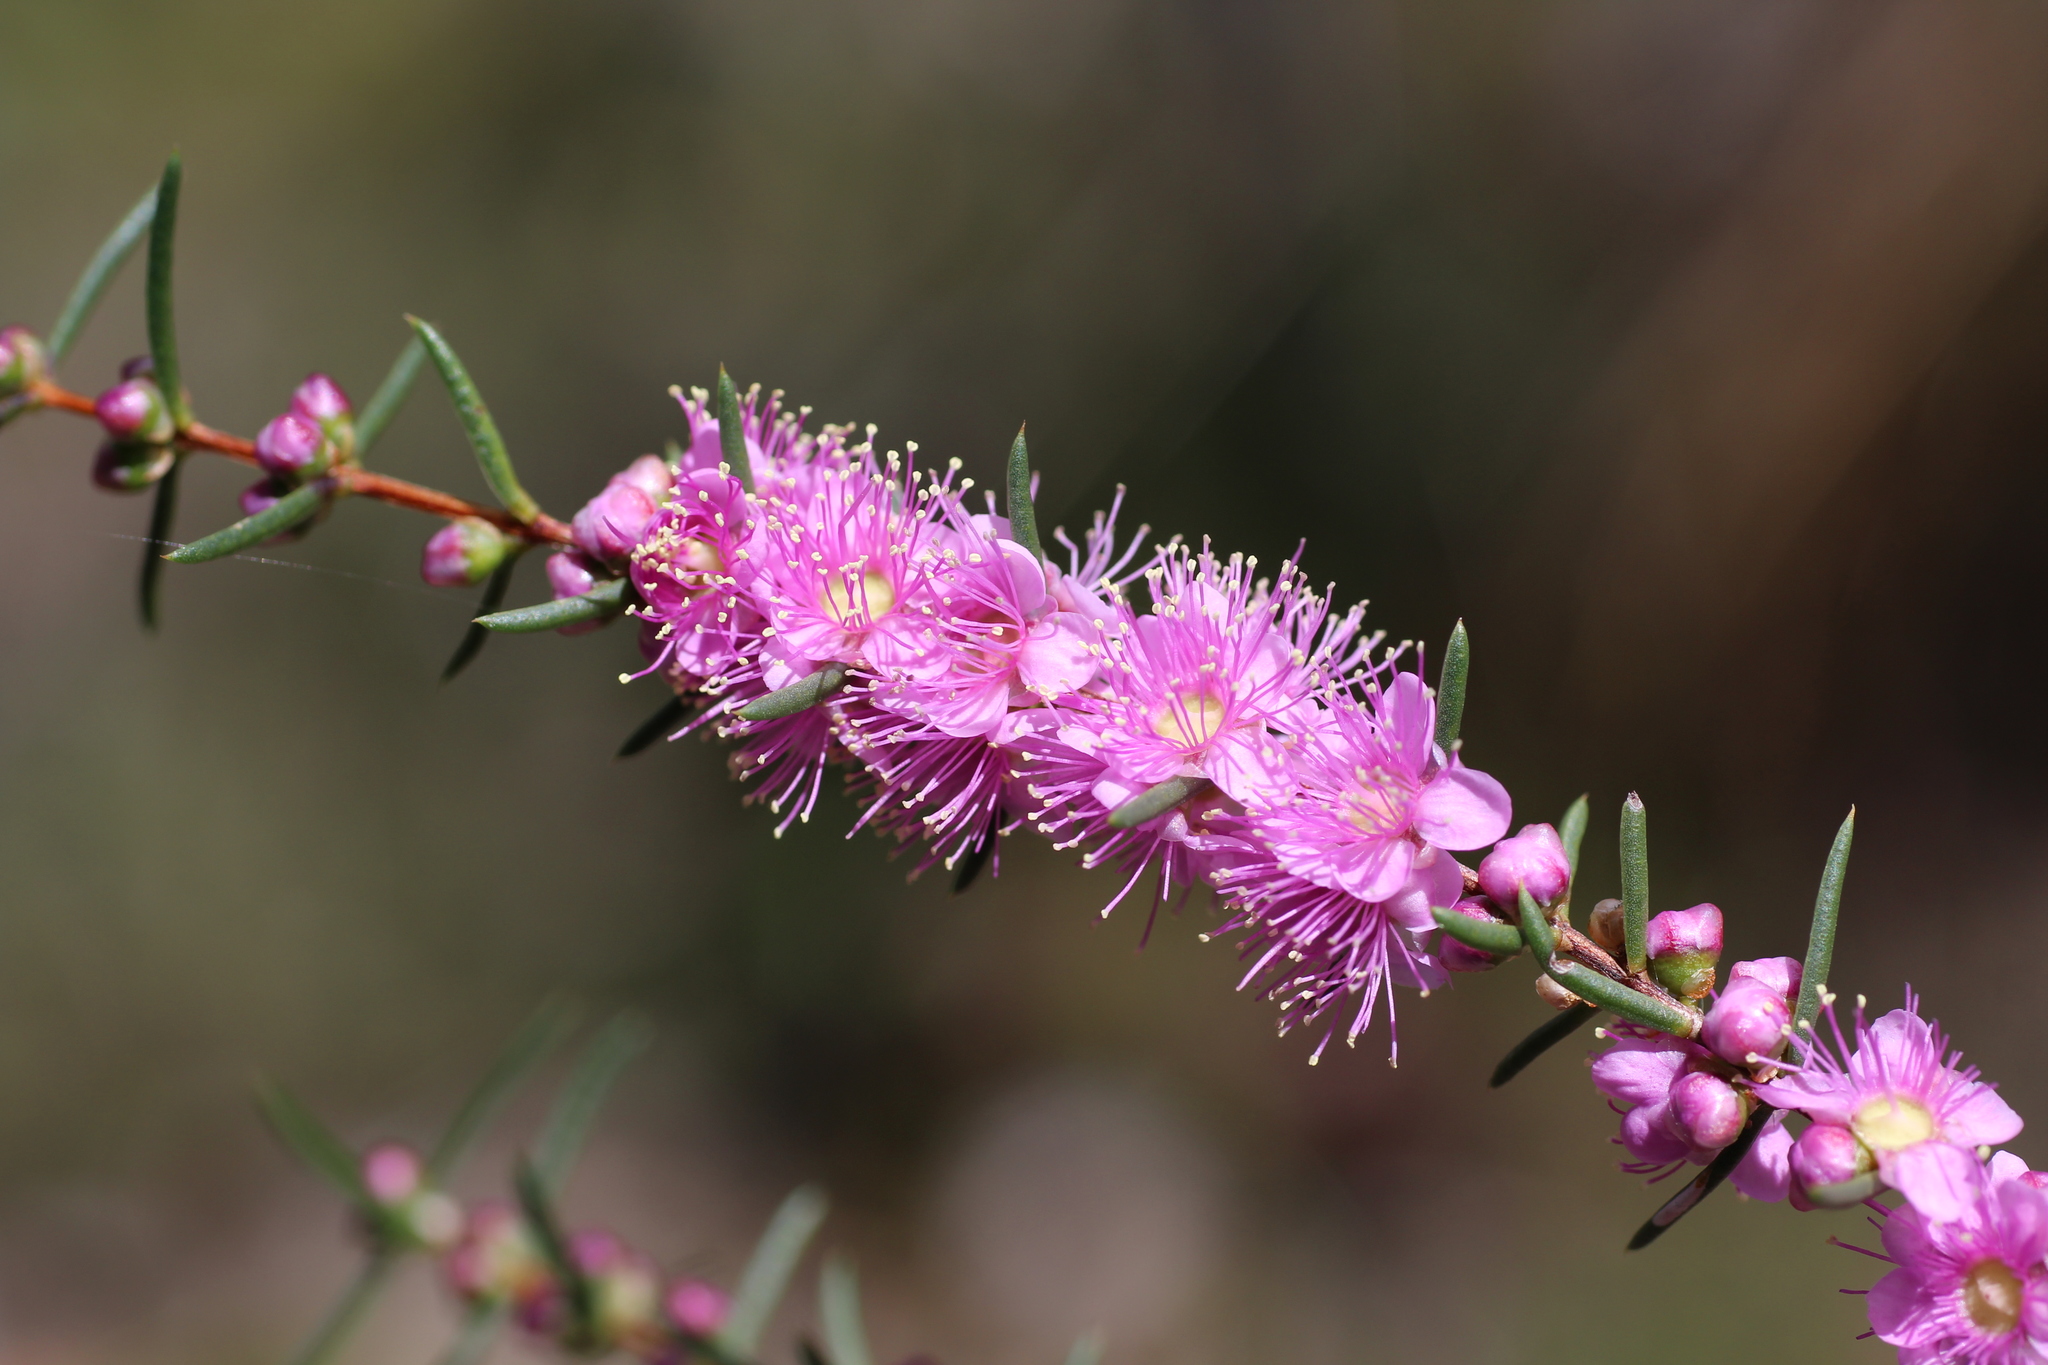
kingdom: Plantae
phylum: Tracheophyta
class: Magnoliopsida
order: Myrtales
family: Myrtaceae
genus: Hypocalymma
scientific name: Hypocalymma robustum
